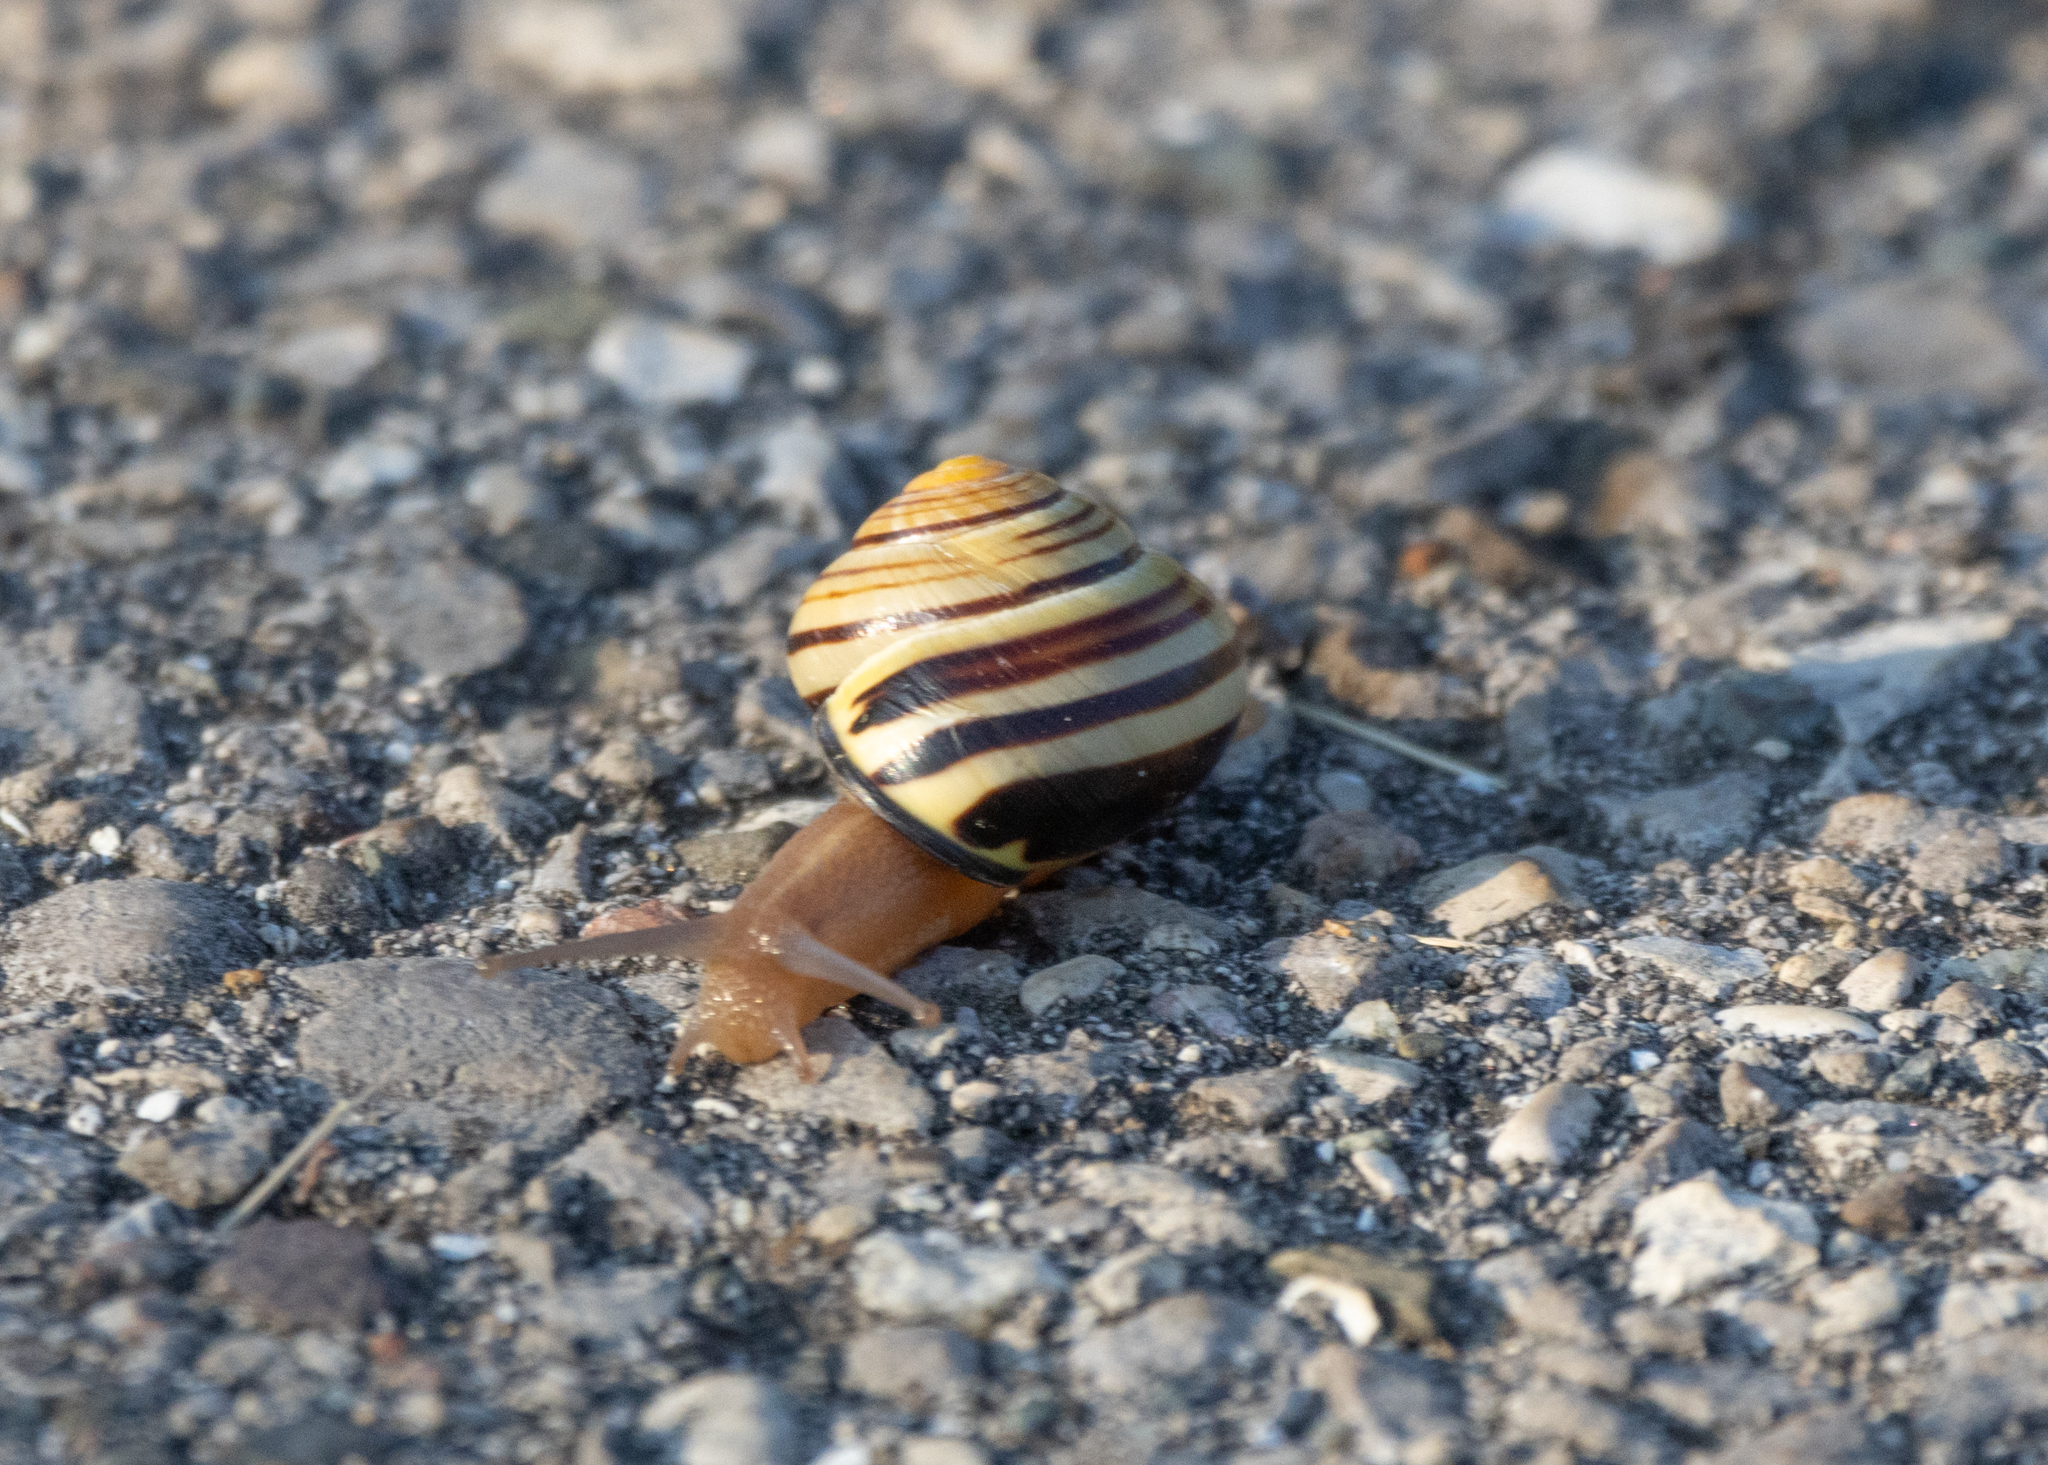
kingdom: Animalia
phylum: Mollusca
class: Gastropoda
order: Stylommatophora
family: Helicidae
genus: Cepaea
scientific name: Cepaea nemoralis
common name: Grovesnail
